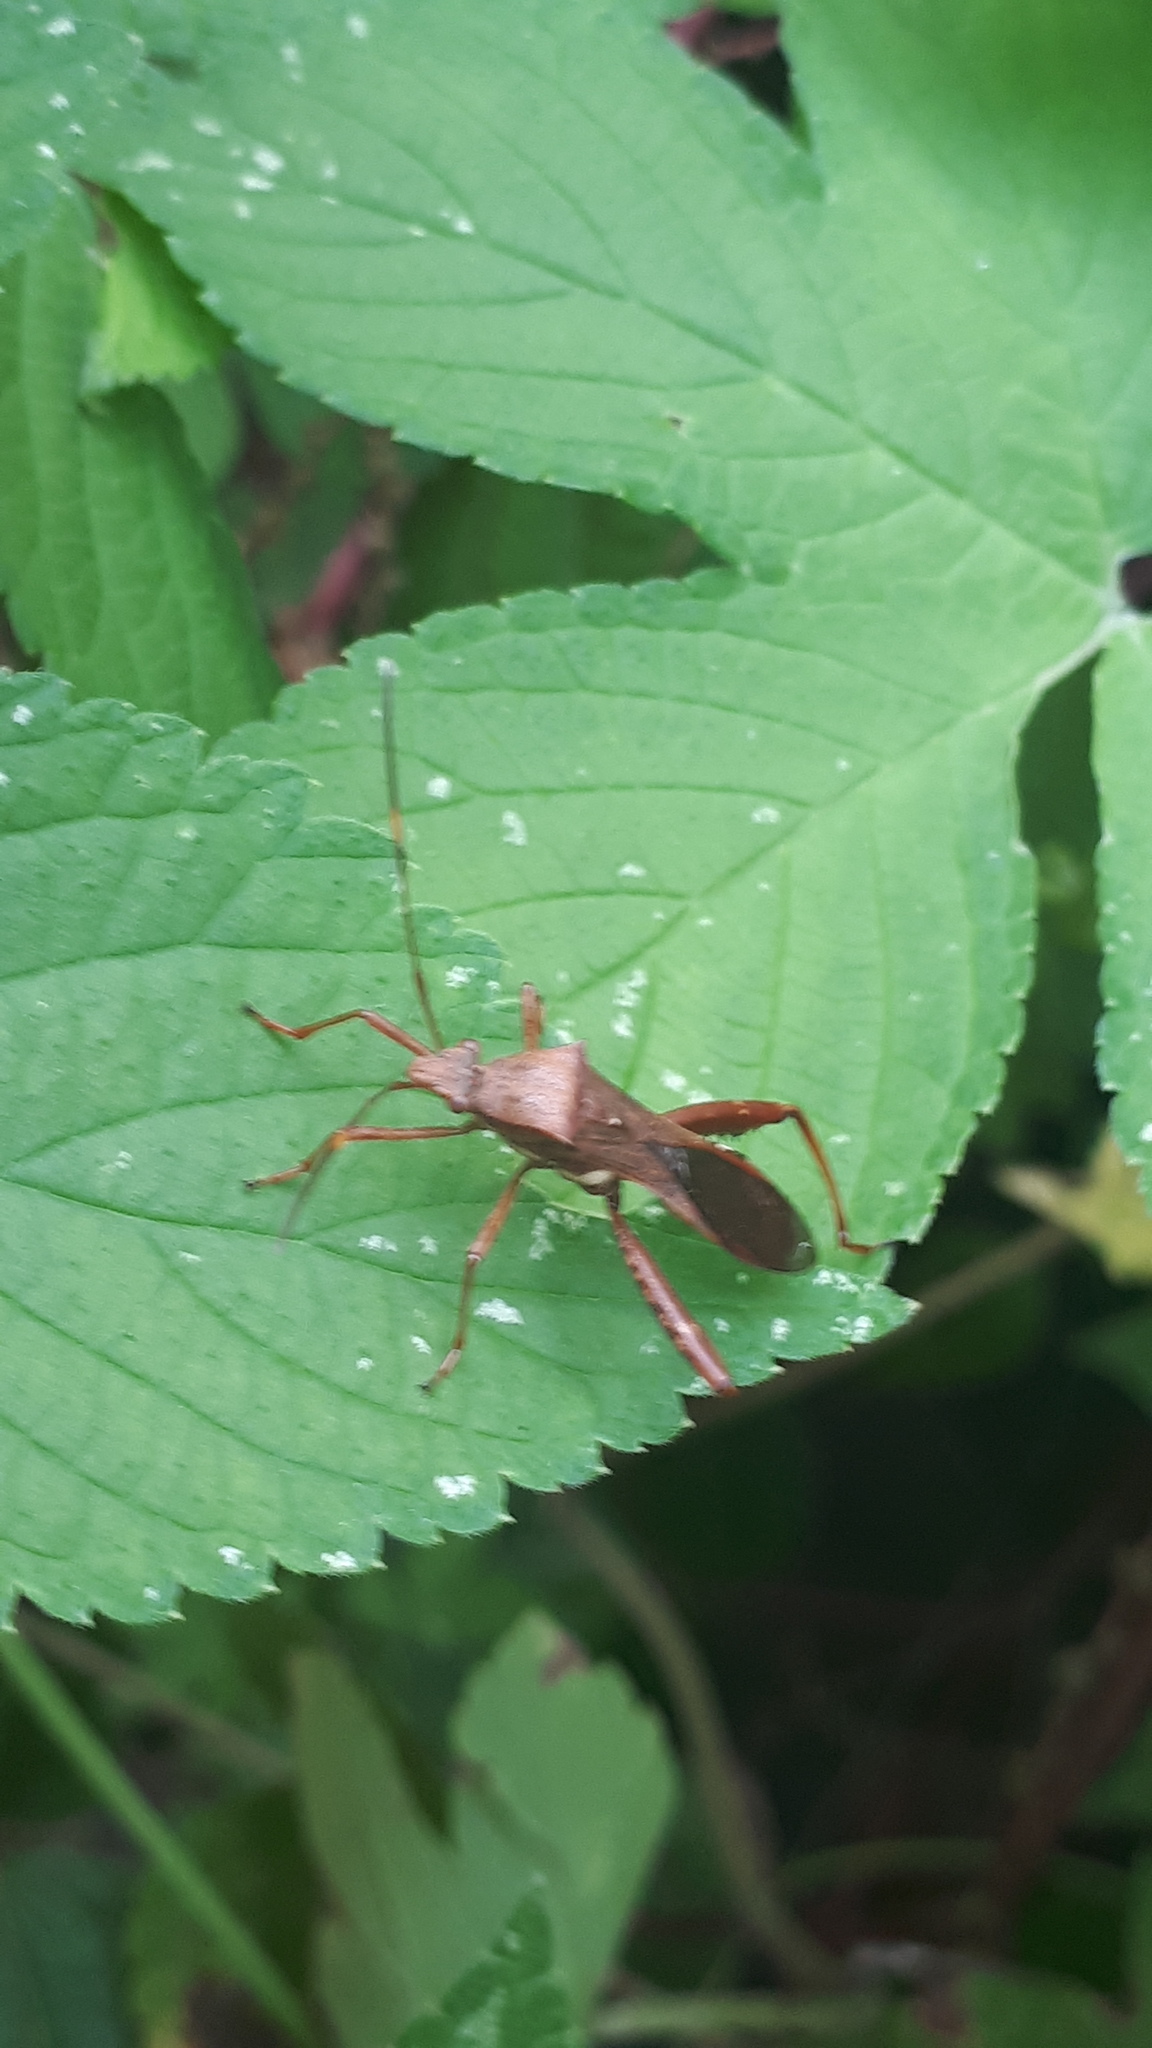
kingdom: Animalia
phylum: Arthropoda
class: Insecta
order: Hemiptera
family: Alydidae
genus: Riptortus
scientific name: Riptortus pedestris
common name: Bean bug
